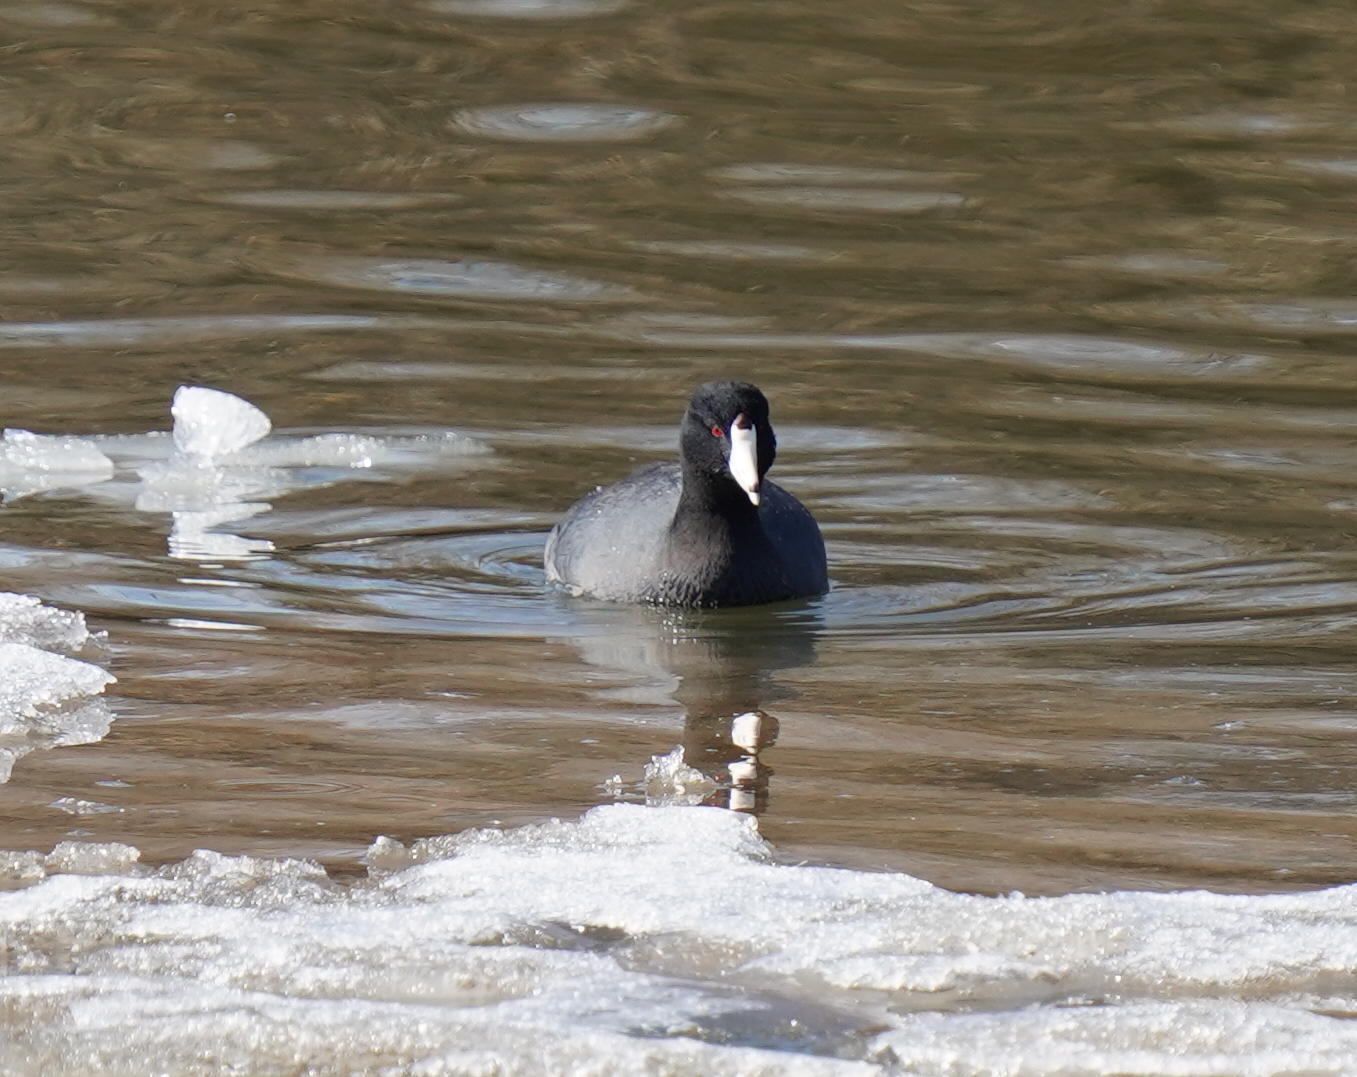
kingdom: Animalia
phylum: Chordata
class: Aves
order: Gruiformes
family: Rallidae
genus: Fulica
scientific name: Fulica americana
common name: American coot
